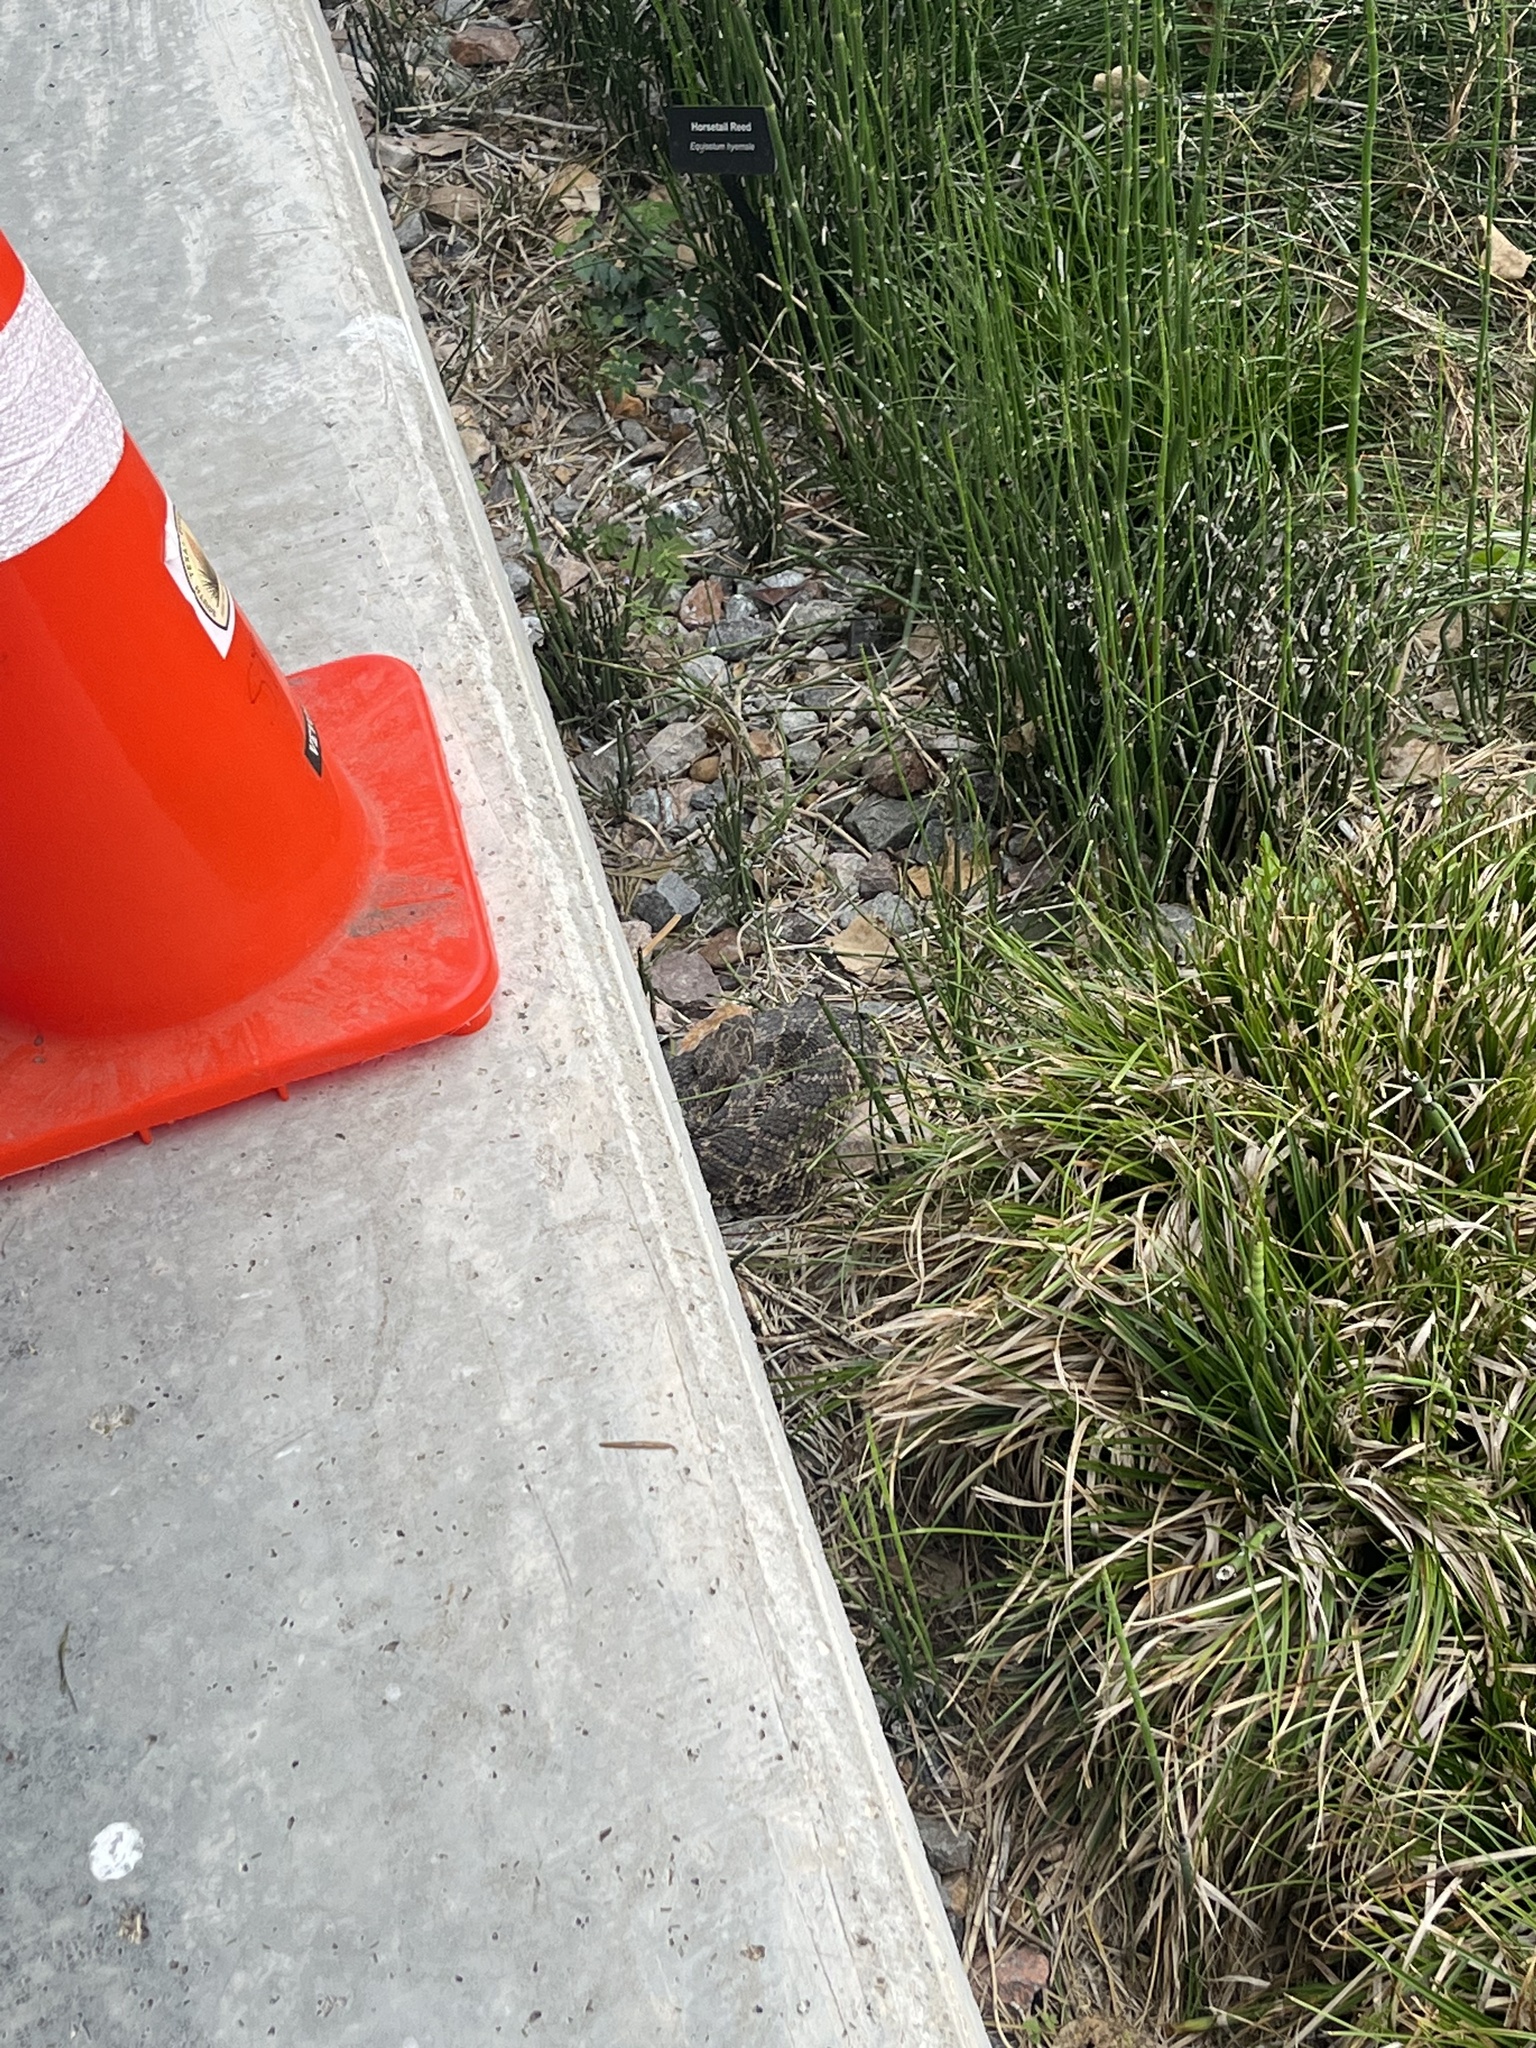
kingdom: Animalia
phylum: Chordata
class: Squamata
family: Viperidae
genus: Crotalus
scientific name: Crotalus atrox
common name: Western diamond-backed rattlesnake
